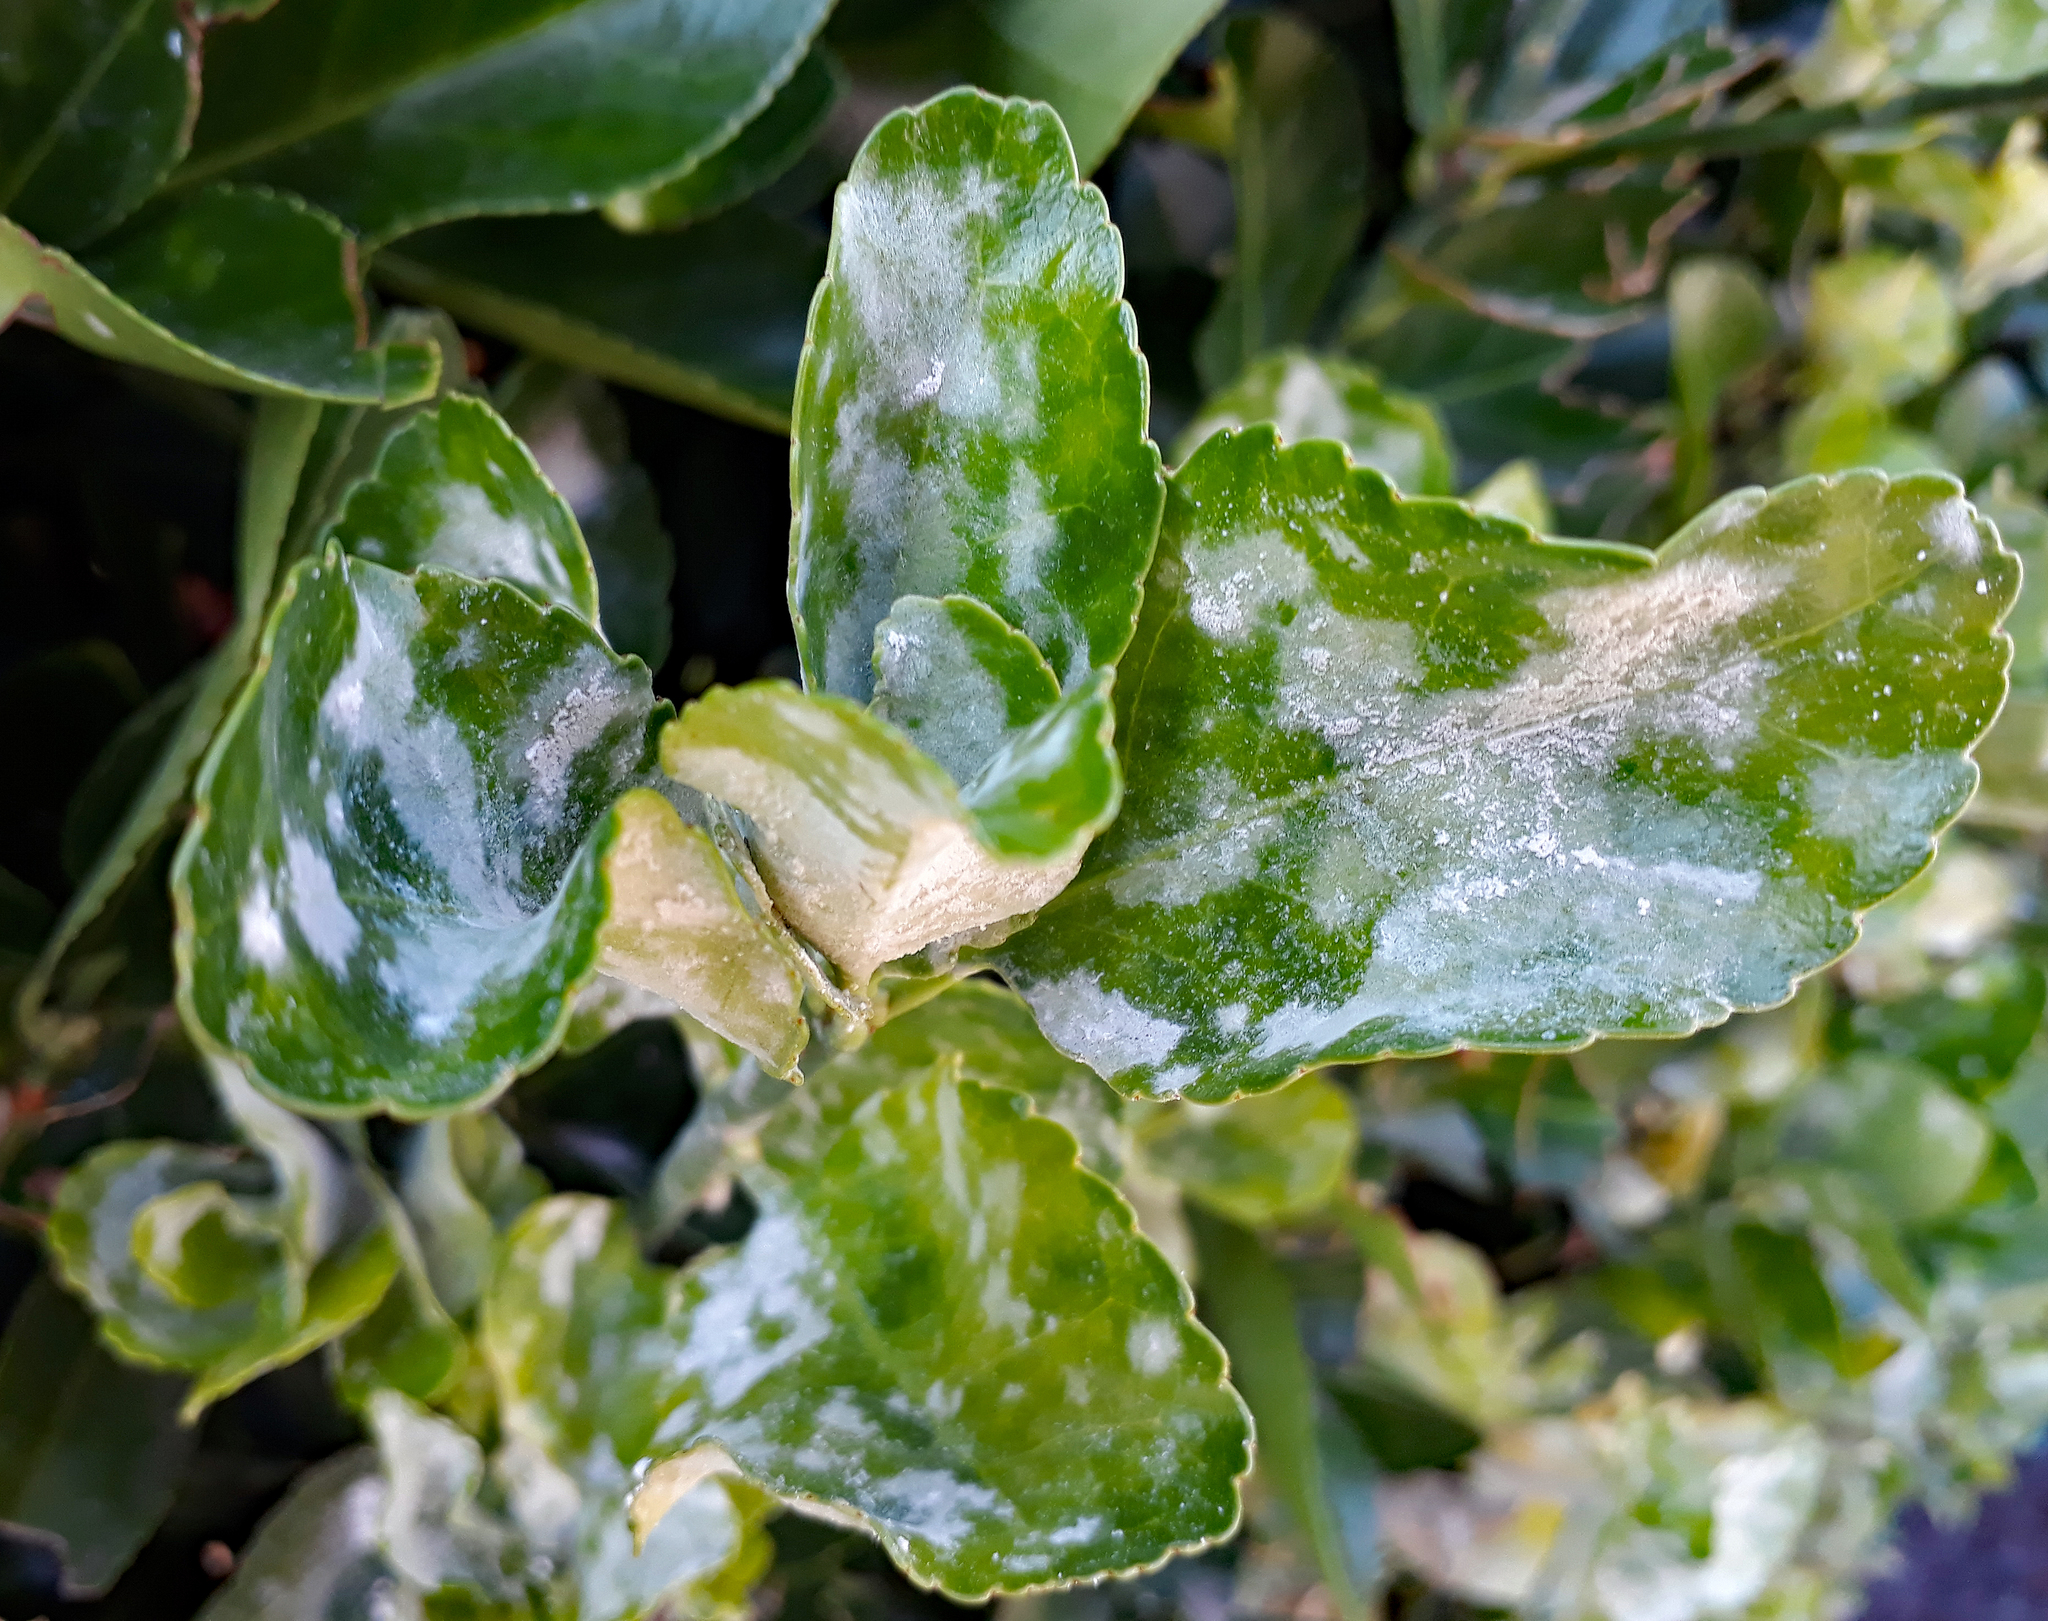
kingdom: Fungi
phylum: Ascomycota
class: Leotiomycetes
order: Helotiales
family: Erysiphaceae
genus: Erysiphe
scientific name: Erysiphe euonymicola
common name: Spindletree mildew
